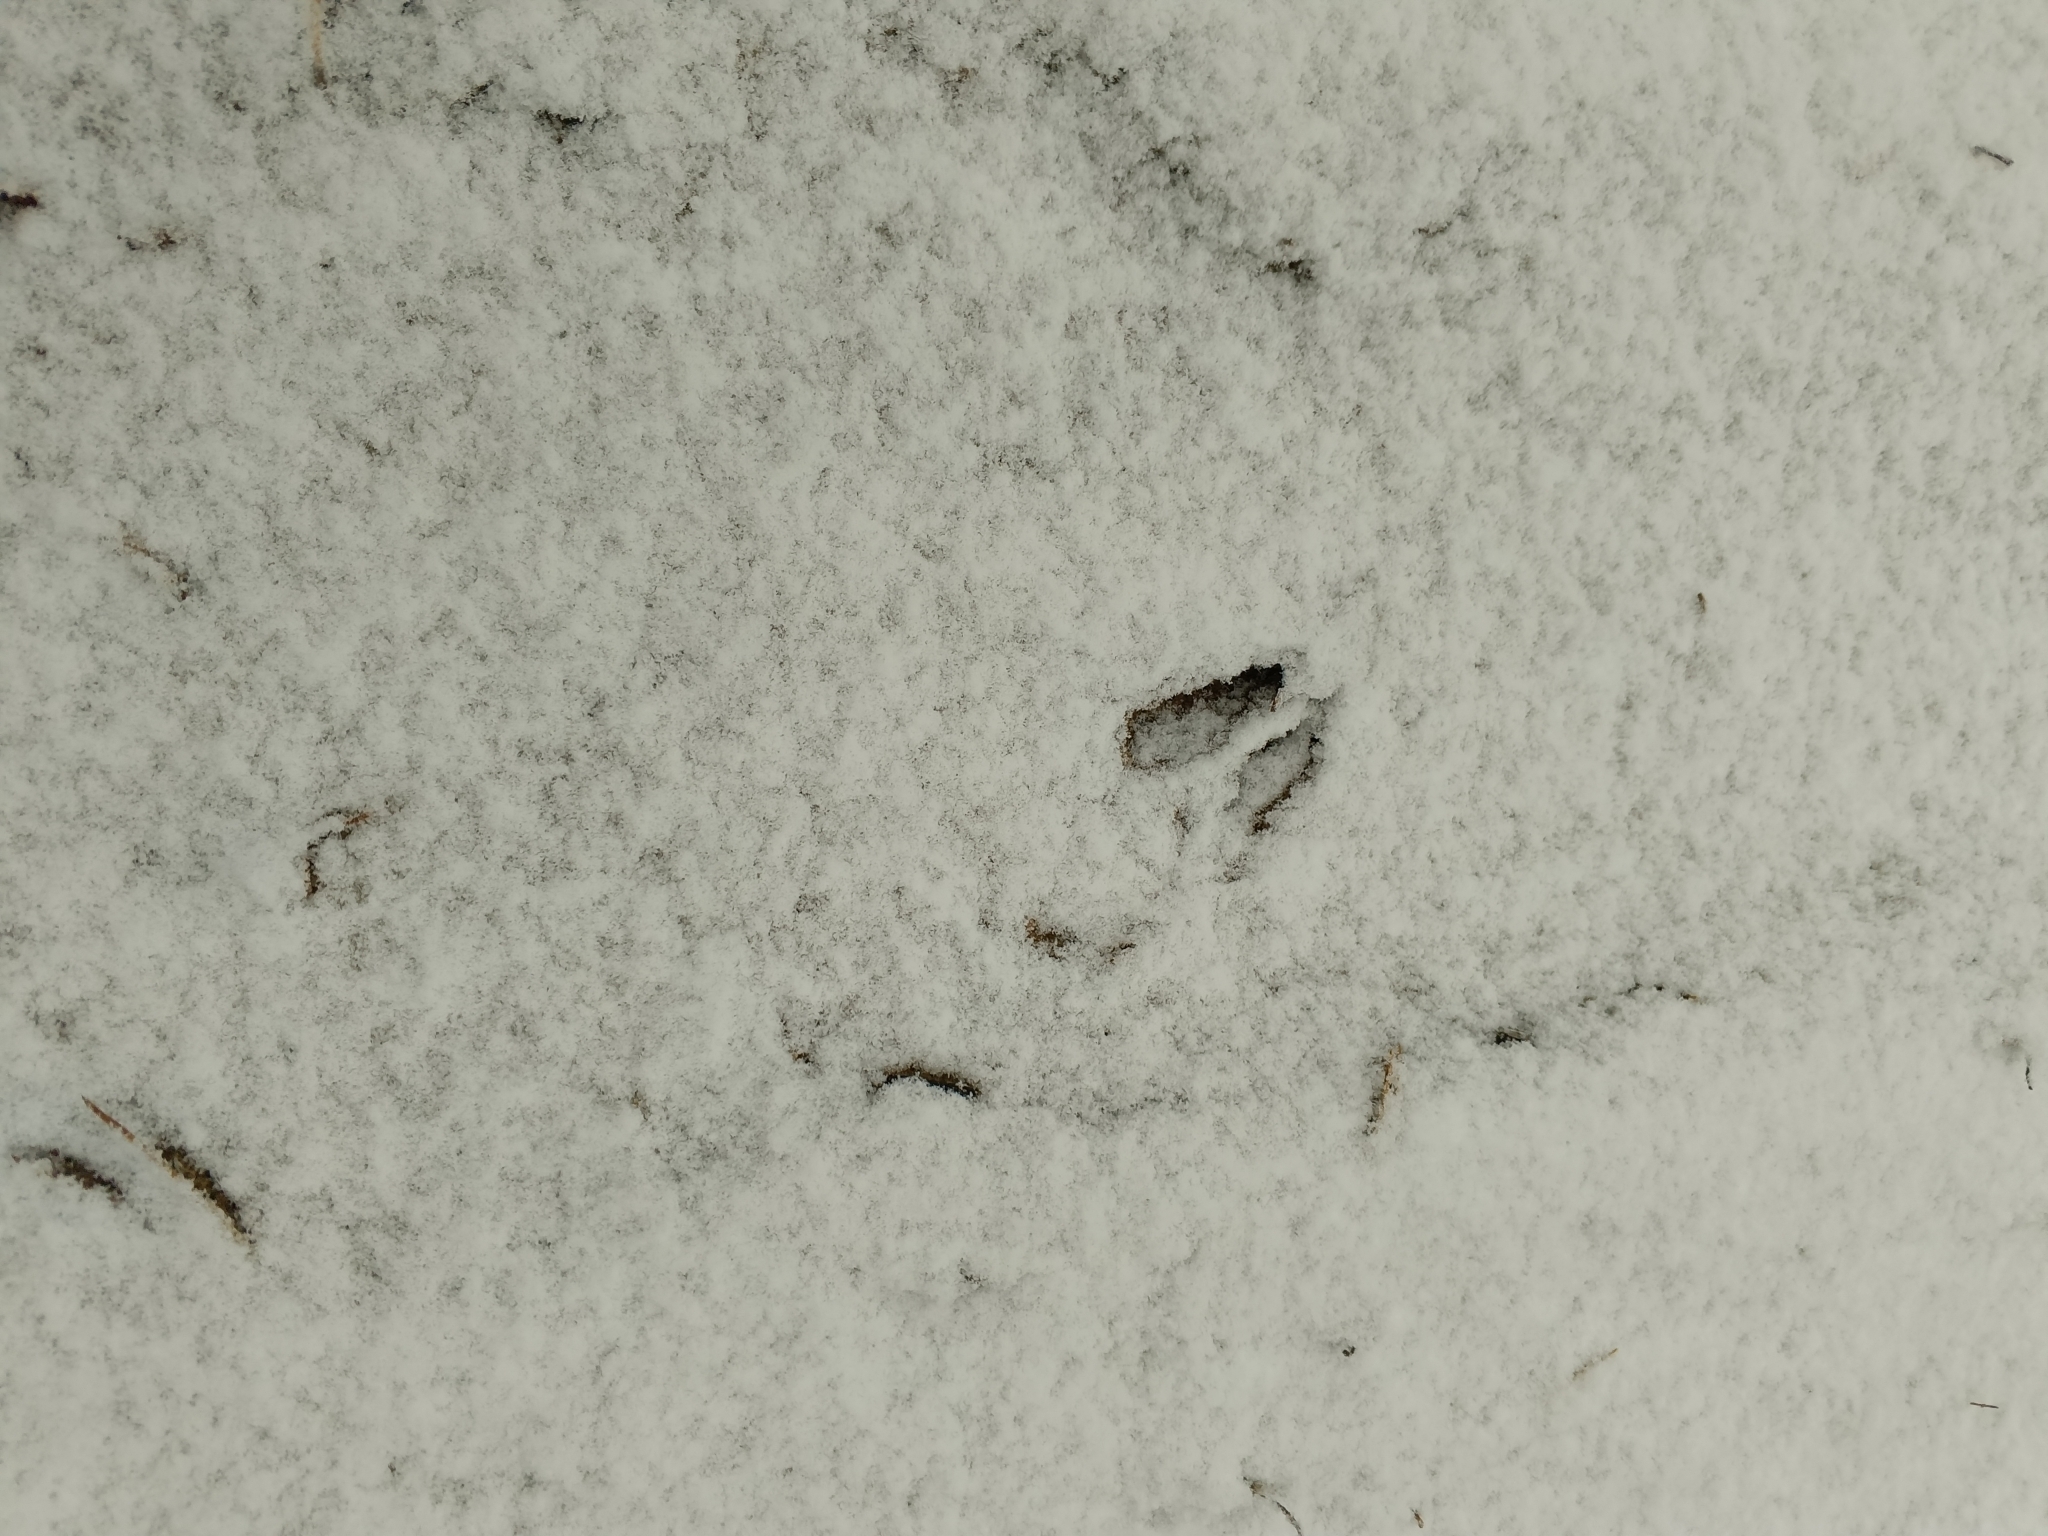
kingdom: Animalia
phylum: Chordata
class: Mammalia
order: Artiodactyla
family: Cervidae
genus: Capreolus
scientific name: Capreolus capreolus
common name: Western roe deer
